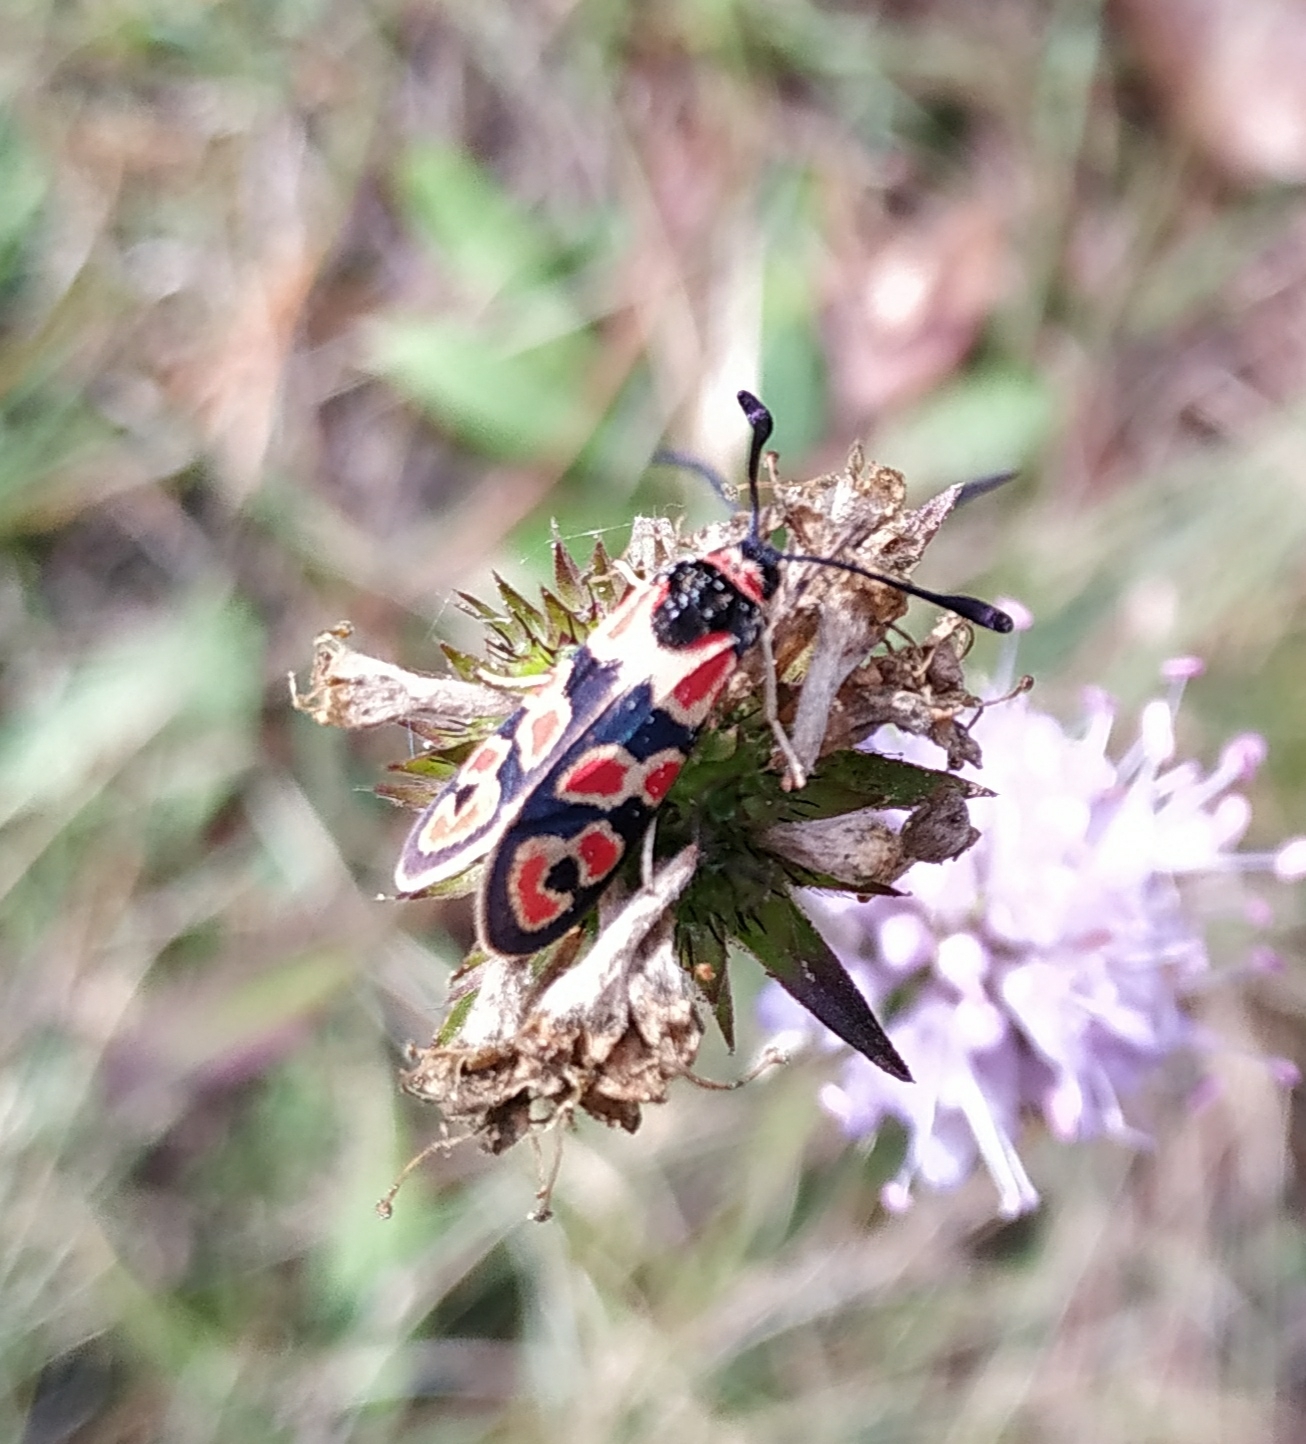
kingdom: Animalia
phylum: Arthropoda
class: Insecta
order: Lepidoptera
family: Zygaenidae
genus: Zygaena
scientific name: Zygaena fausta
